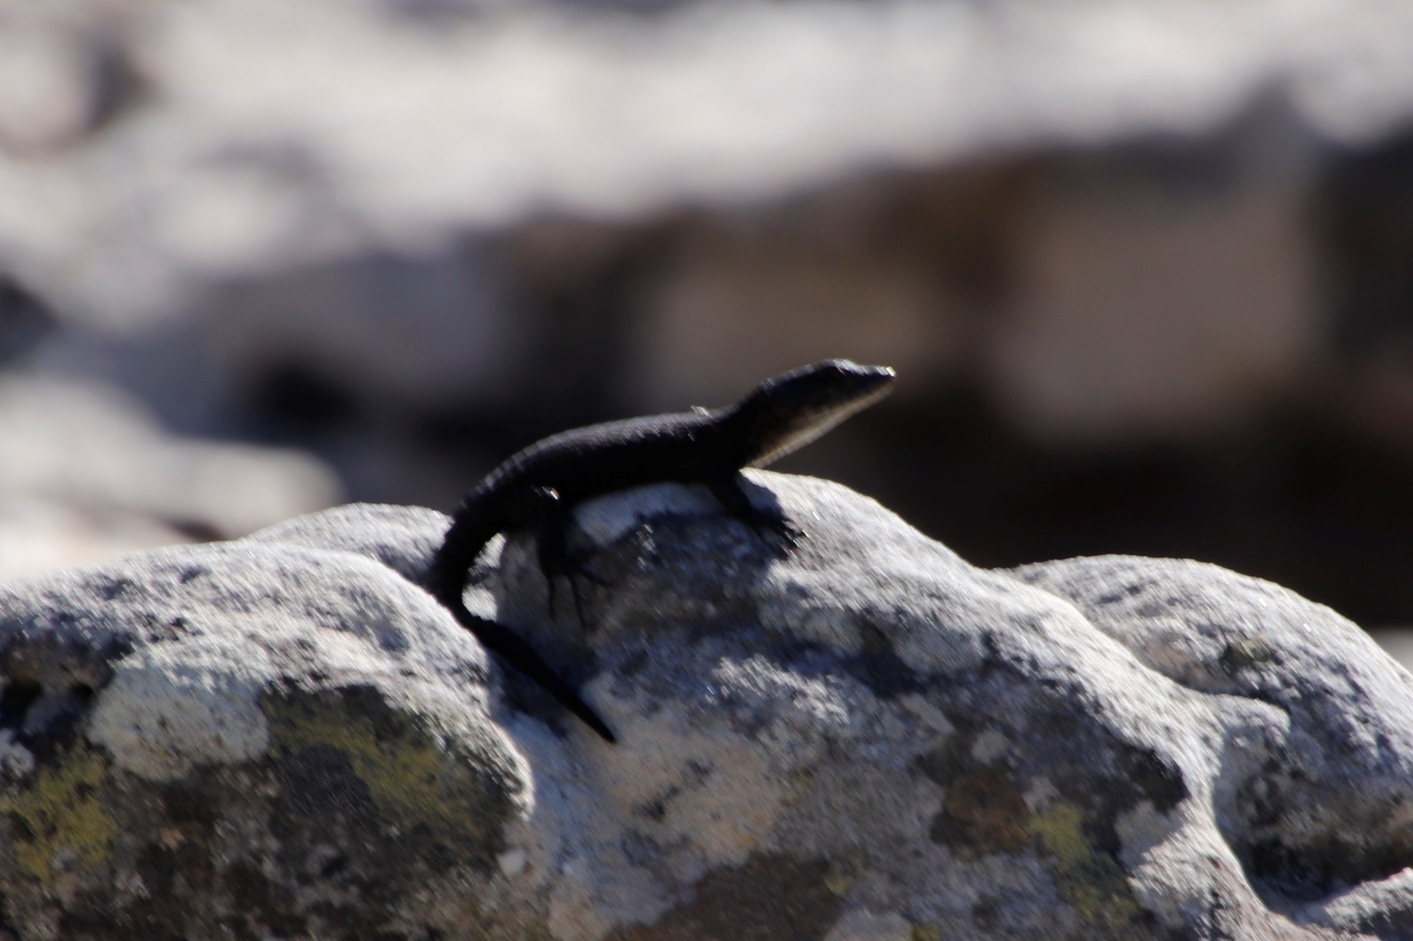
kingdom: Animalia
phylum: Chordata
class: Squamata
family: Cordylidae
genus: Cordylus
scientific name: Cordylus niger
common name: Black girdled lizard
